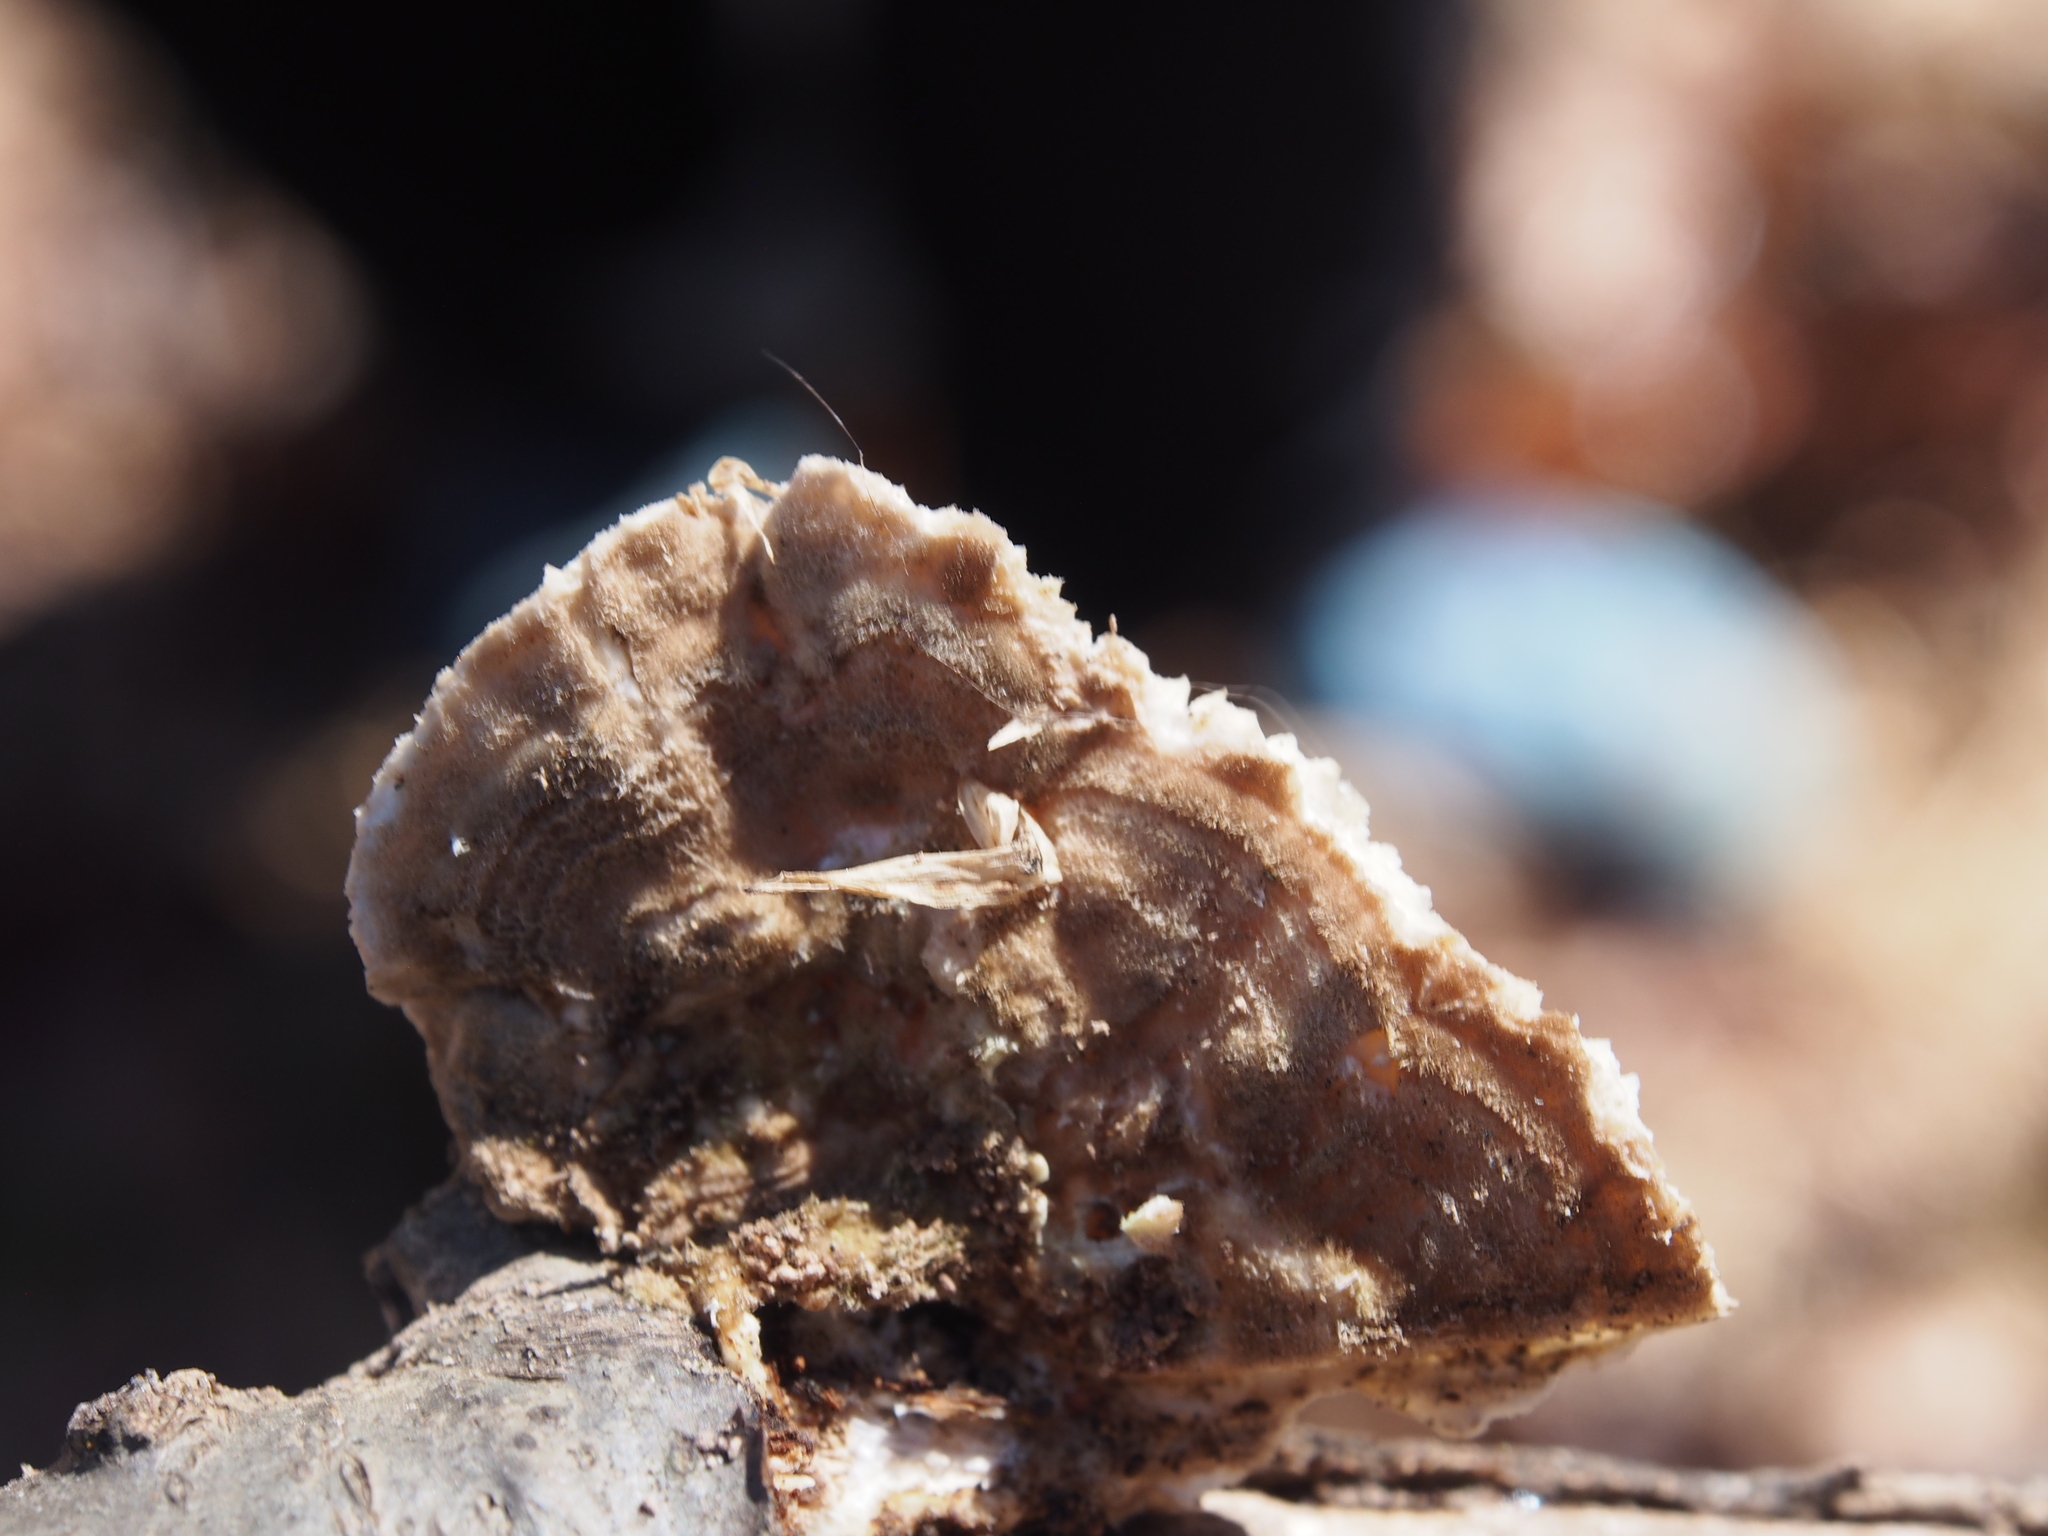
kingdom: Fungi
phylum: Basidiomycota
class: Agaricomycetes
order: Polyporales
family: Polyporaceae
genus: Lenzites
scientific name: Lenzites betulinus
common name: Birch mazegill
